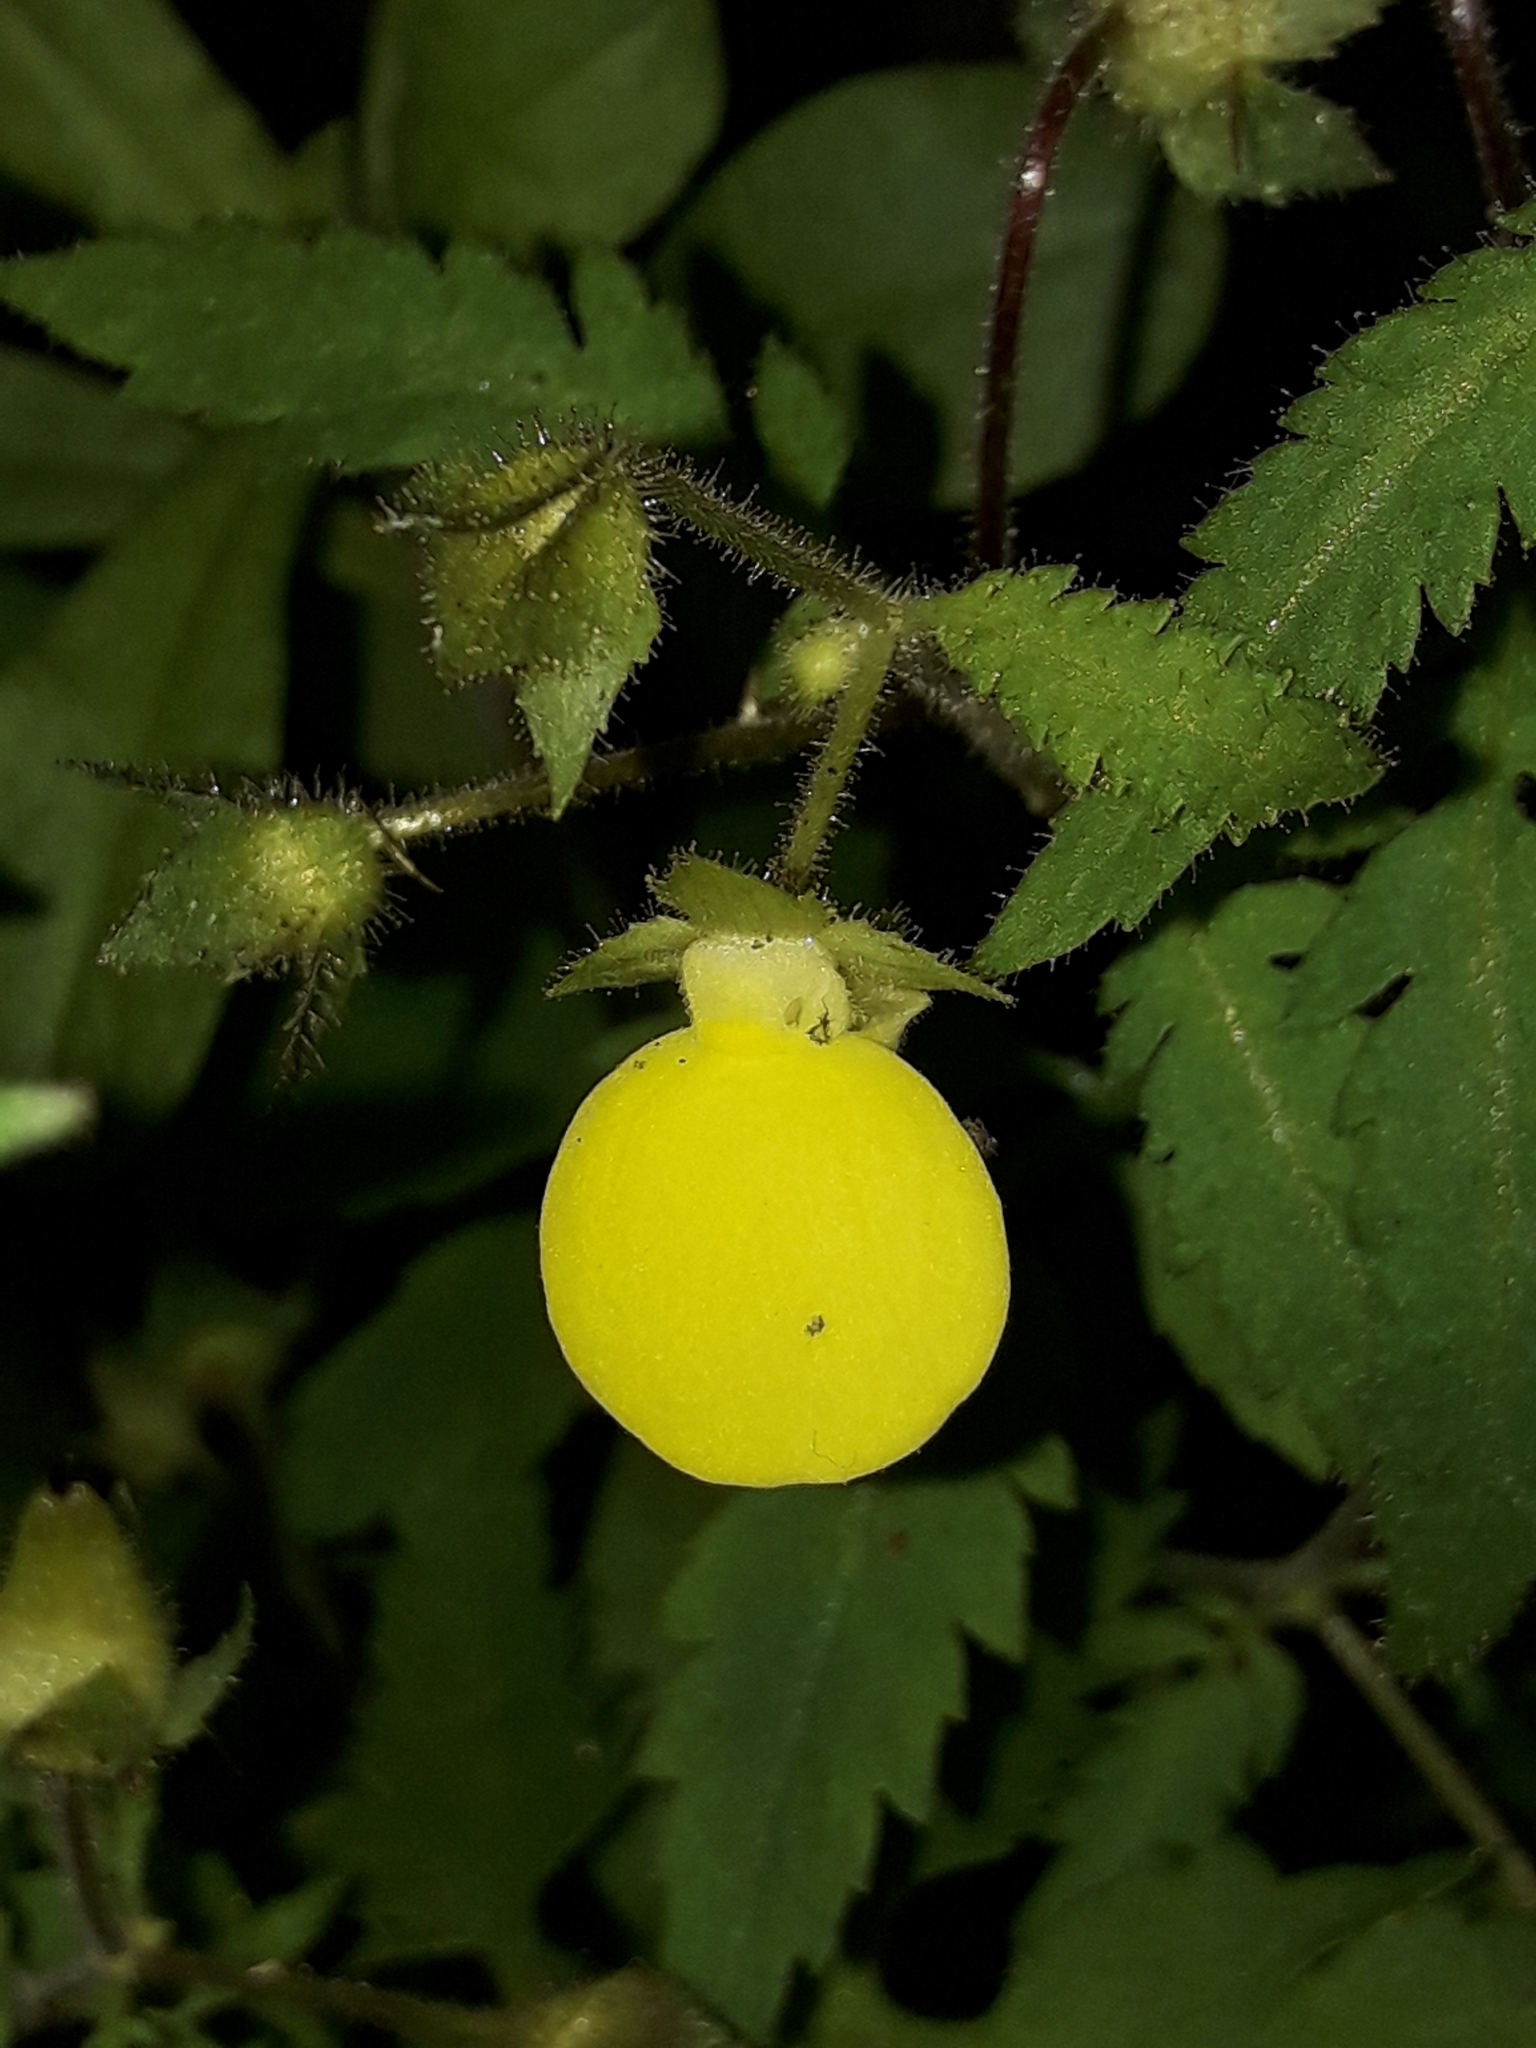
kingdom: Plantae
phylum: Tracheophyta
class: Magnoliopsida
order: Lamiales
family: Calceolariaceae
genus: Calceolaria
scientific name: Calceolaria tripartita
